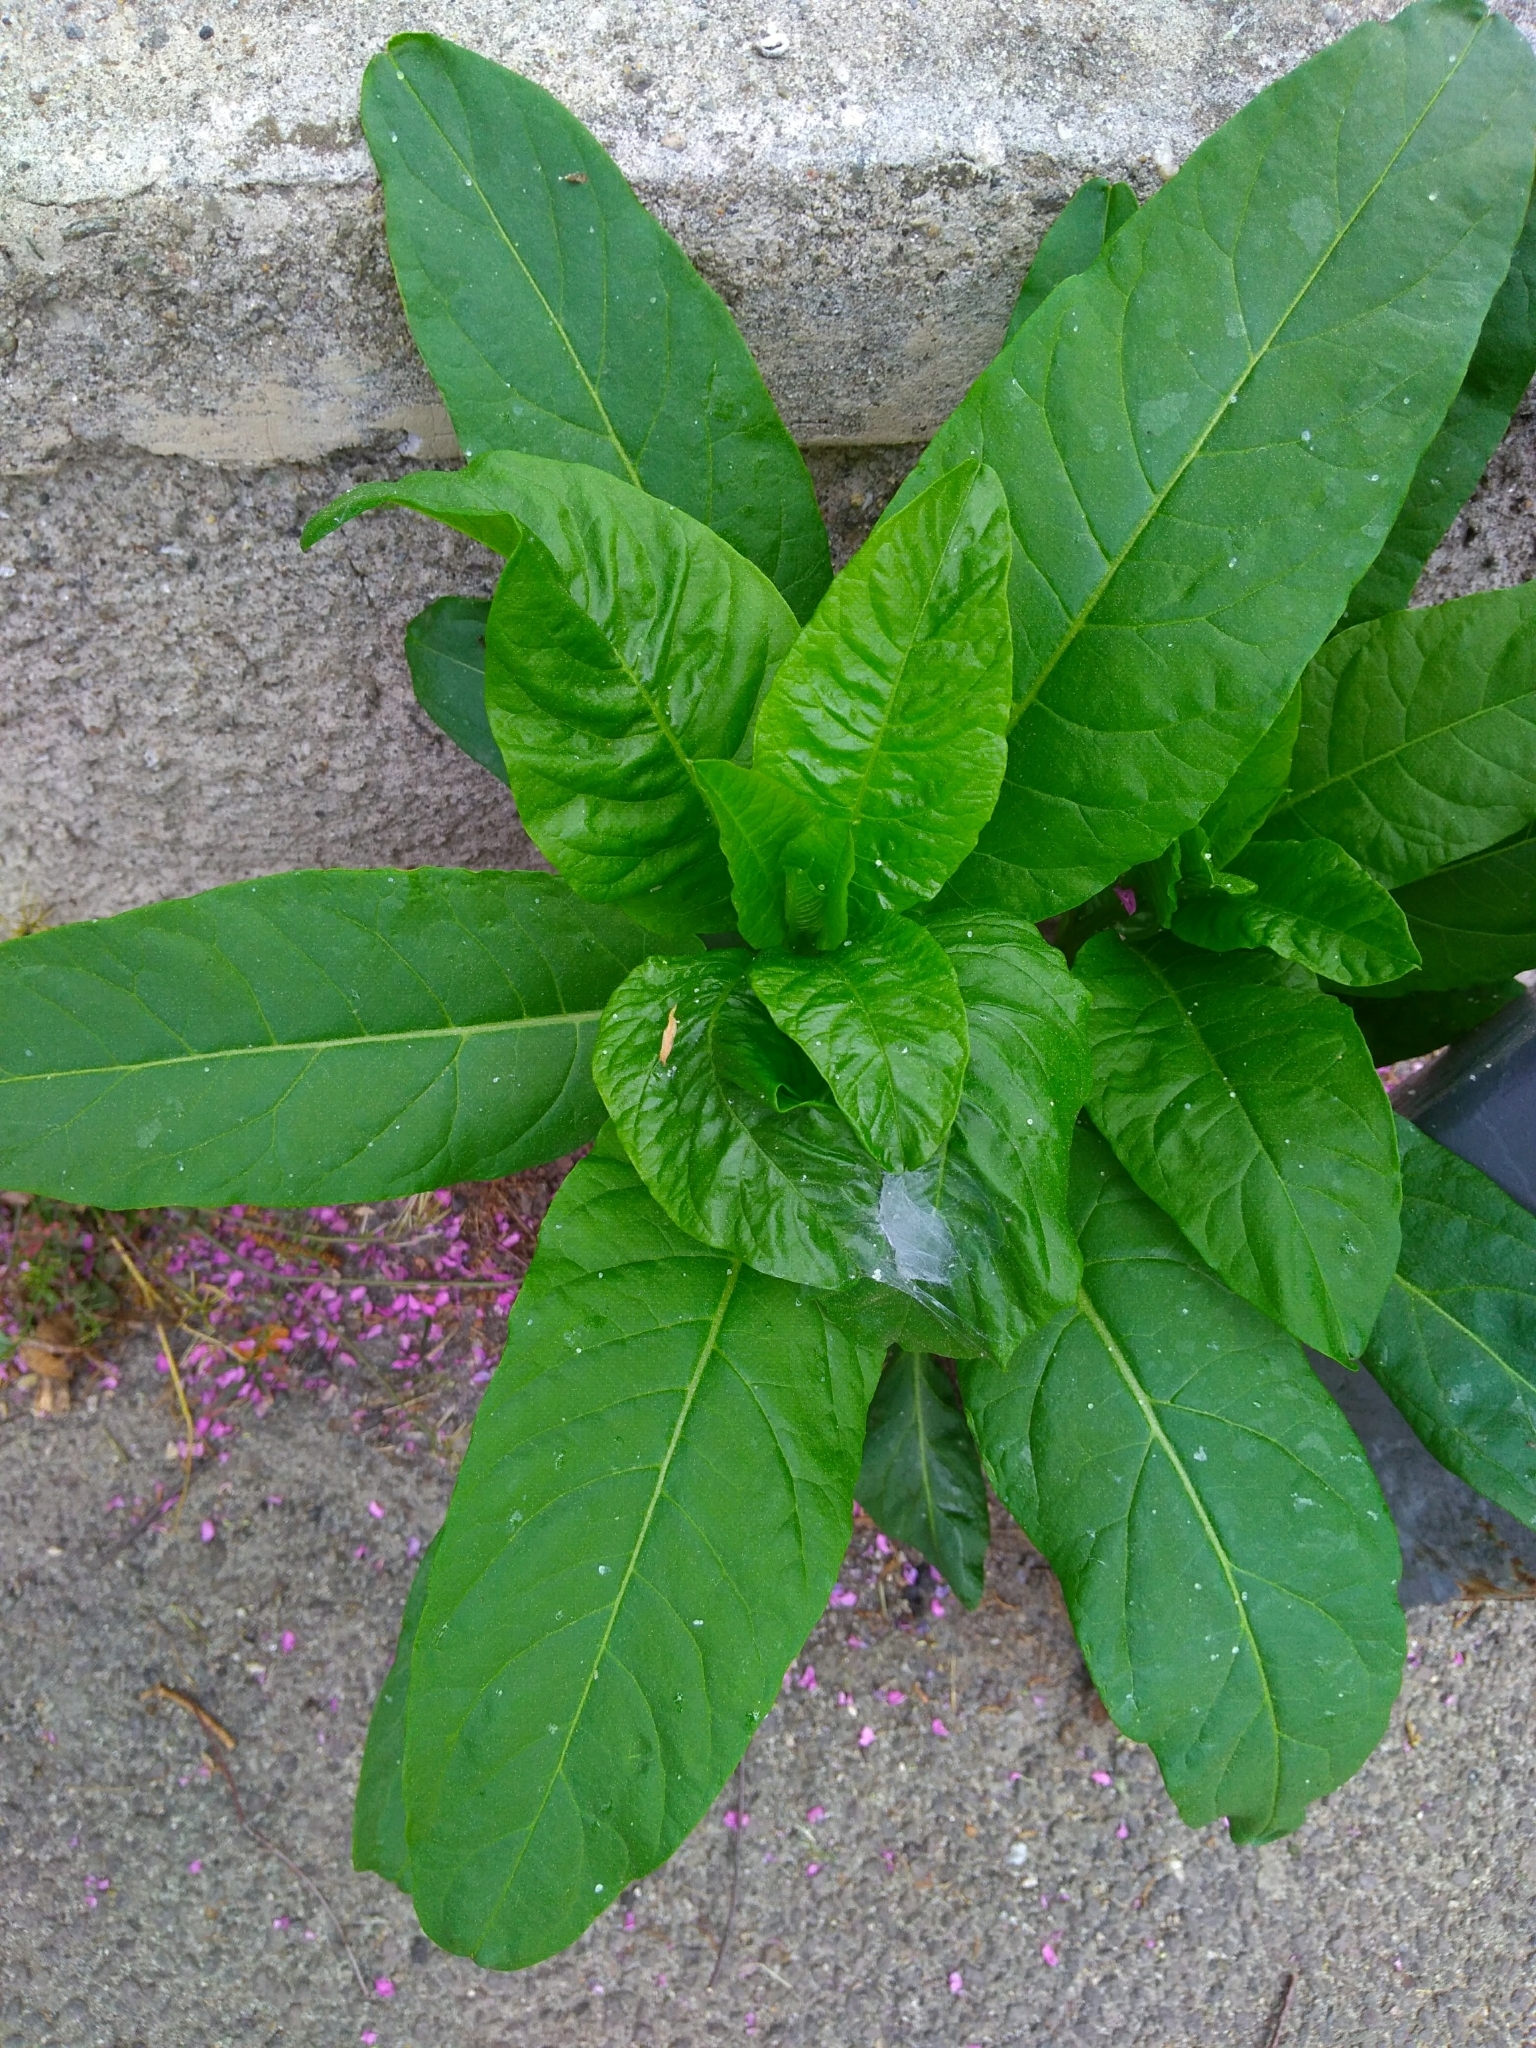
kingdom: Plantae
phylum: Tracheophyta
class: Magnoliopsida
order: Caryophyllales
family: Phytolaccaceae
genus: Phytolacca
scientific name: Phytolacca americana
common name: American pokeweed
